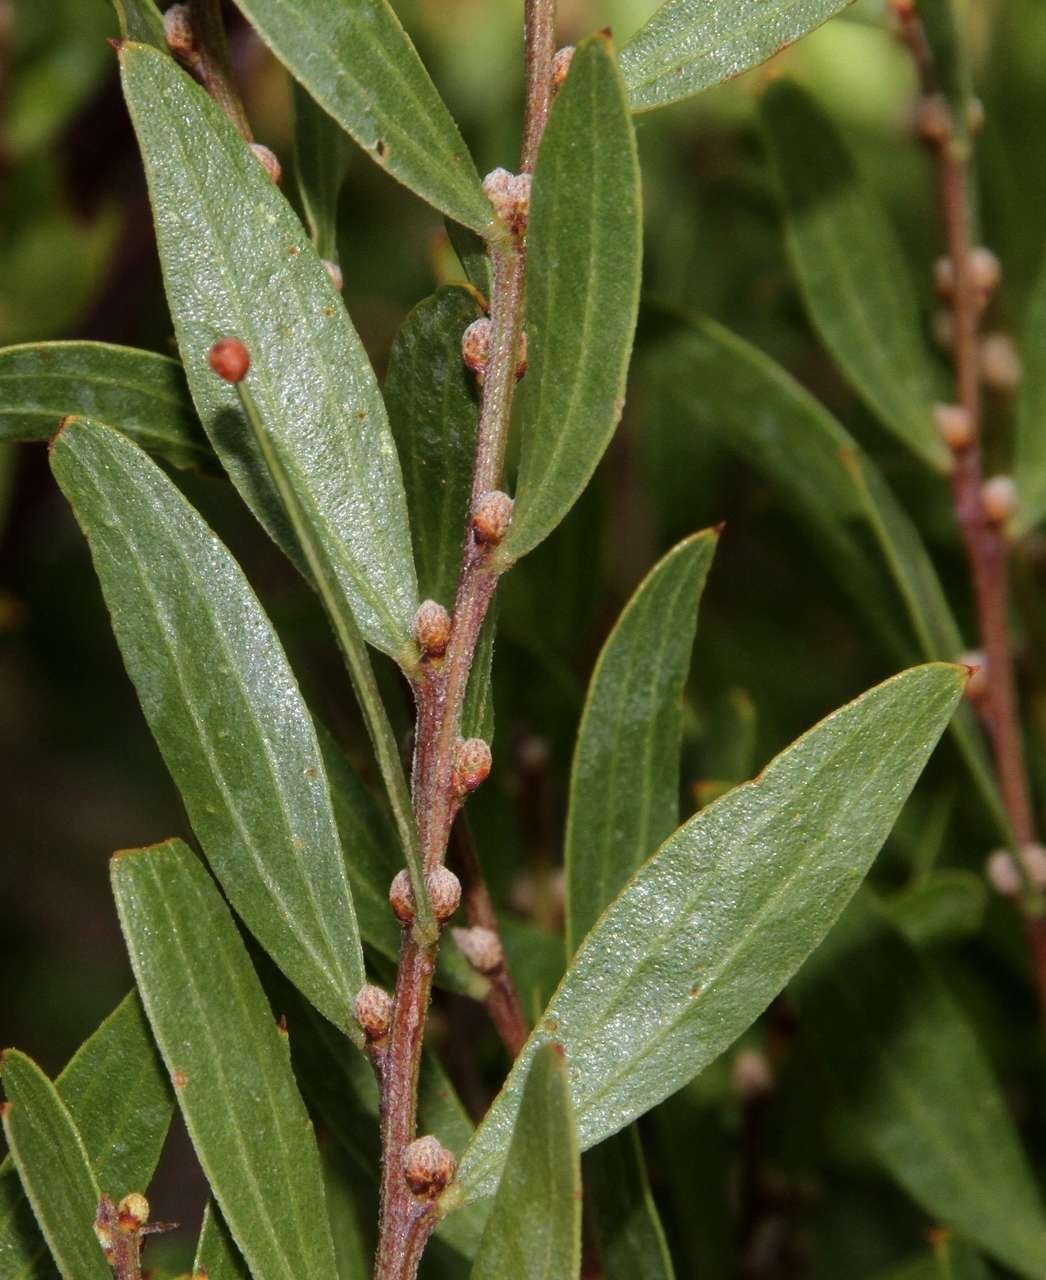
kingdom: Plantae
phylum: Tracheophyta
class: Magnoliopsida
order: Fabales
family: Fabaceae
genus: Acacia
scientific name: Acacia rostriformis
